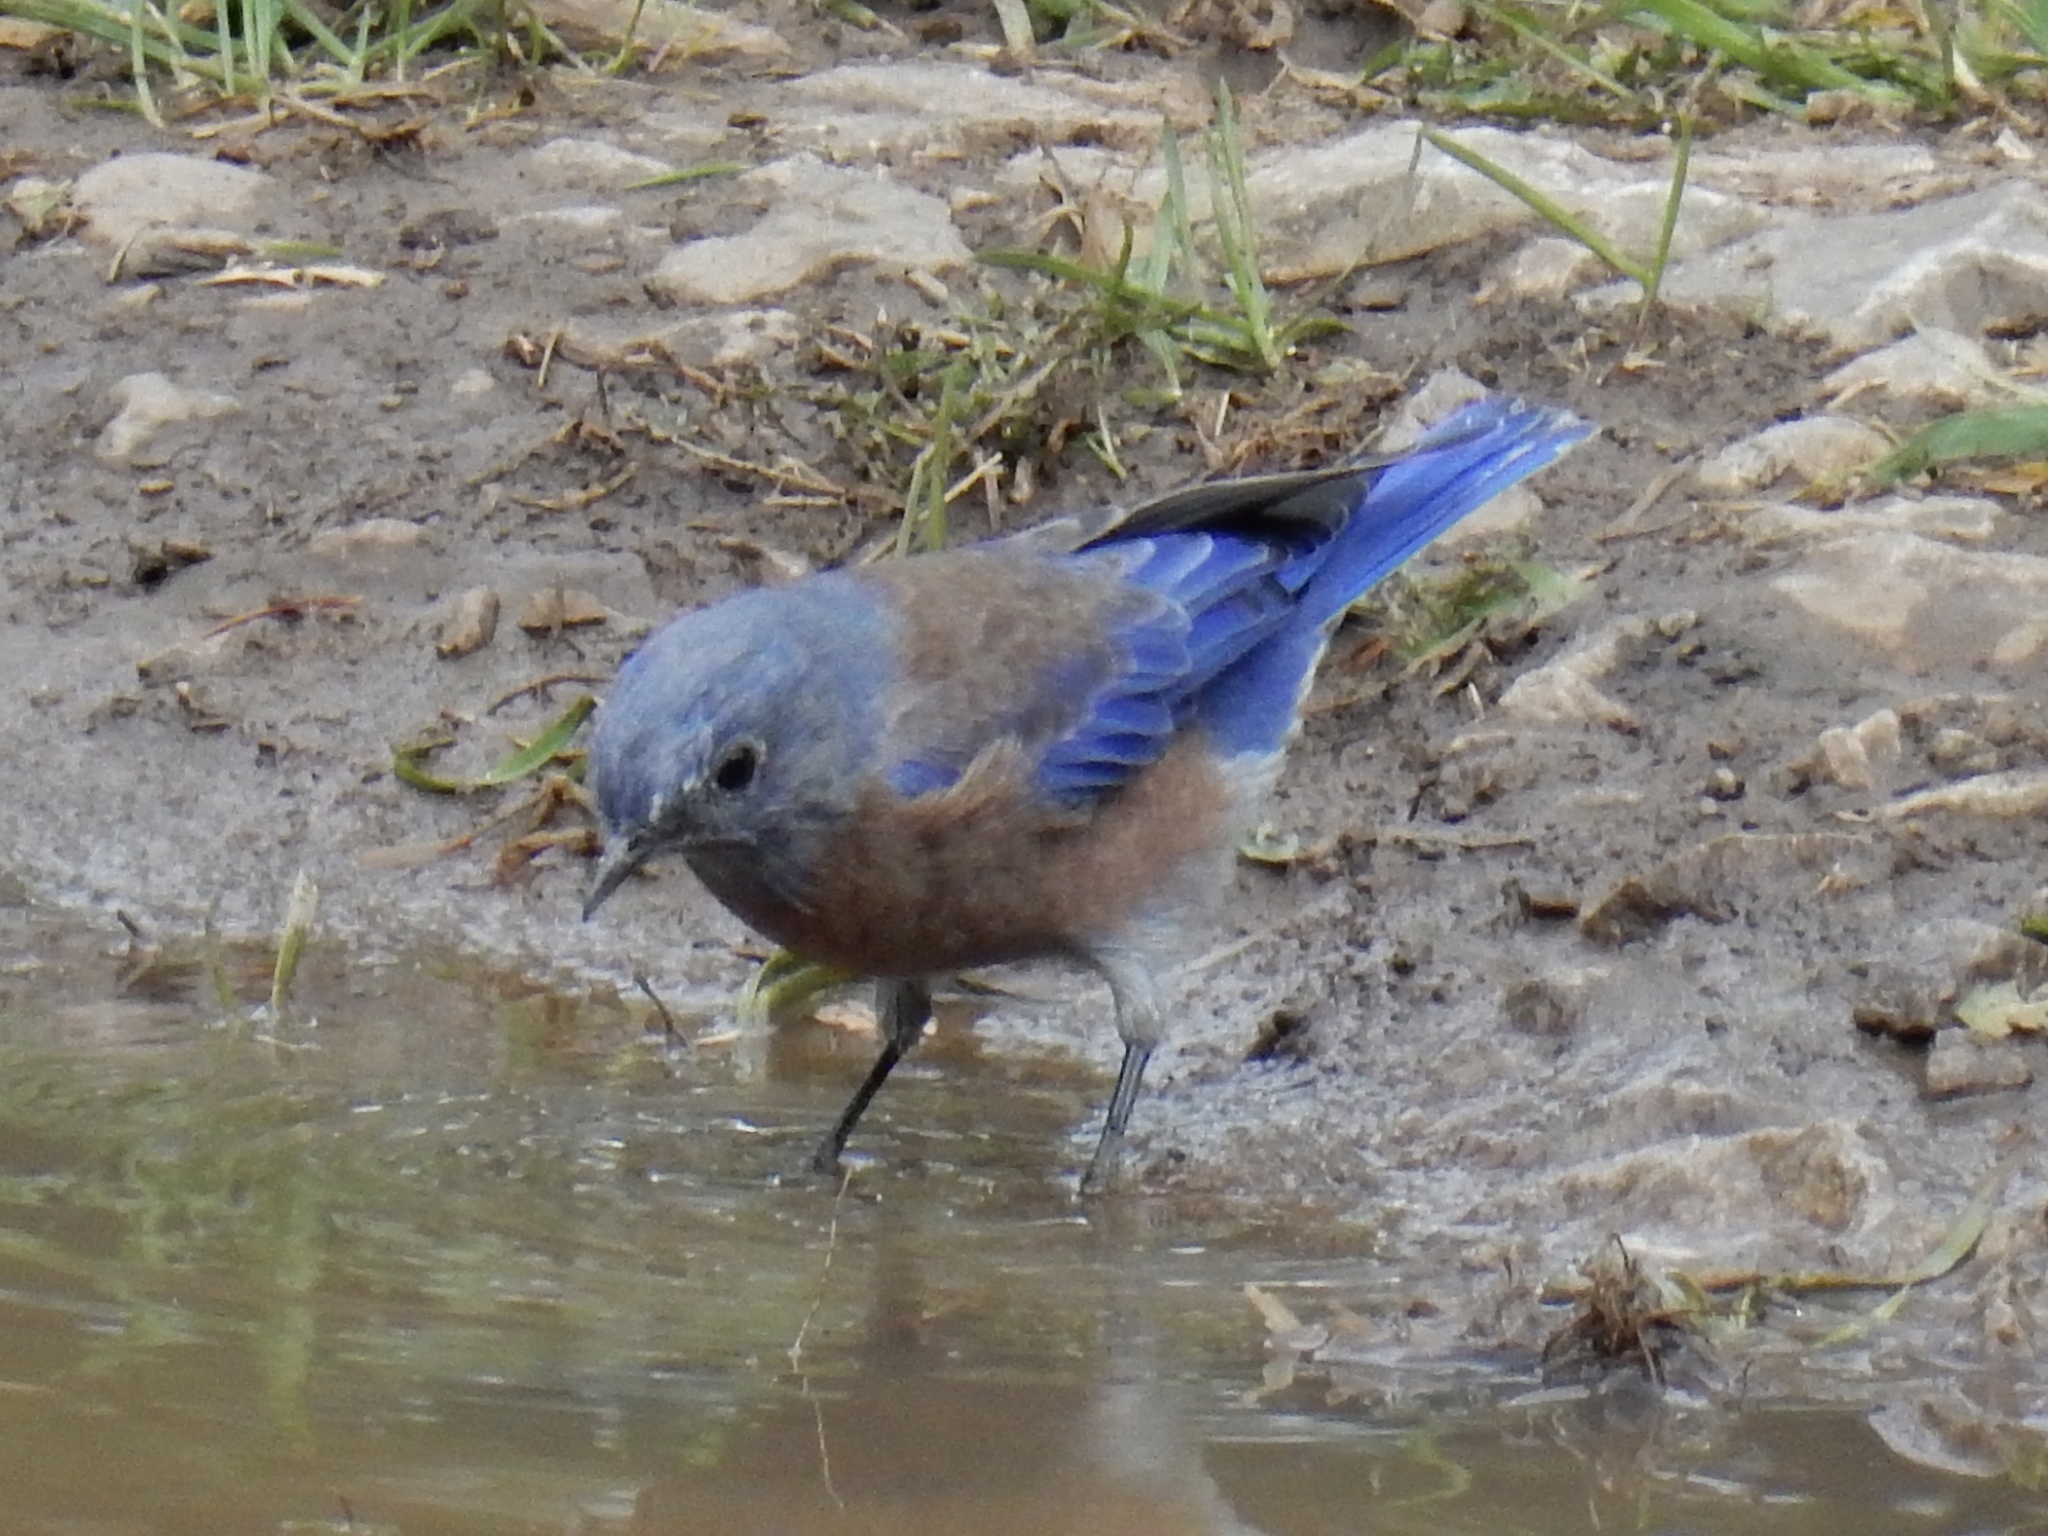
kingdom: Animalia
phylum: Chordata
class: Aves
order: Passeriformes
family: Turdidae
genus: Sialia
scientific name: Sialia mexicana
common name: Western bluebird
